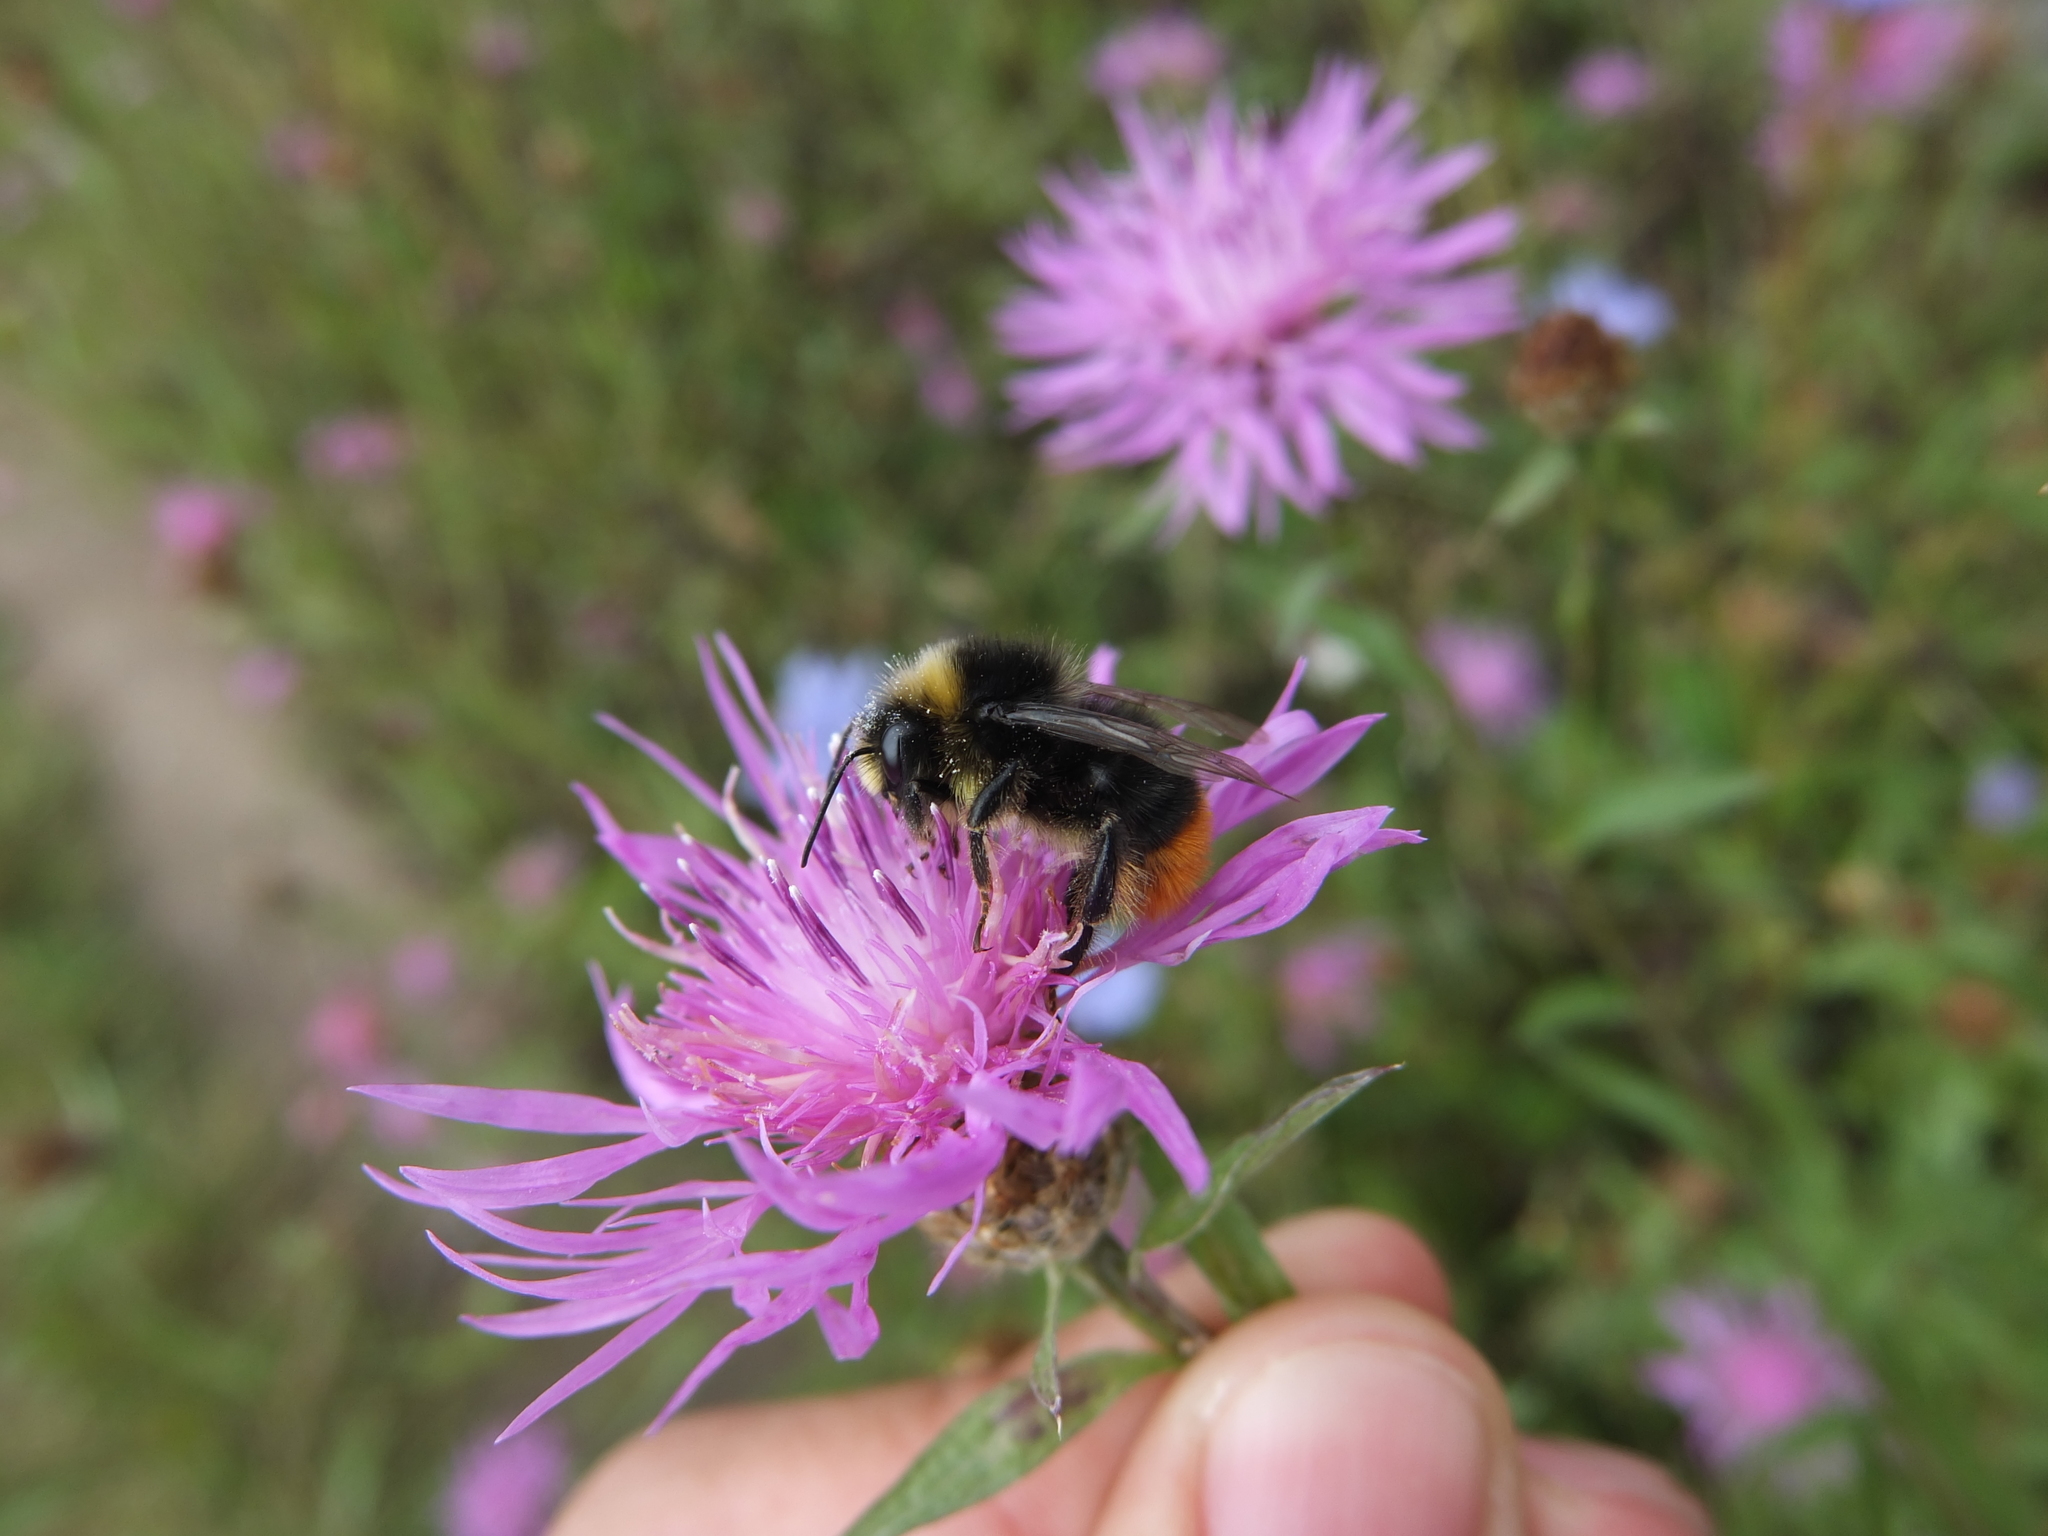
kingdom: Animalia
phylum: Arthropoda
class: Insecta
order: Hymenoptera
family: Apidae
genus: Bombus
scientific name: Bombus pratorum
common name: Early humble-bee
